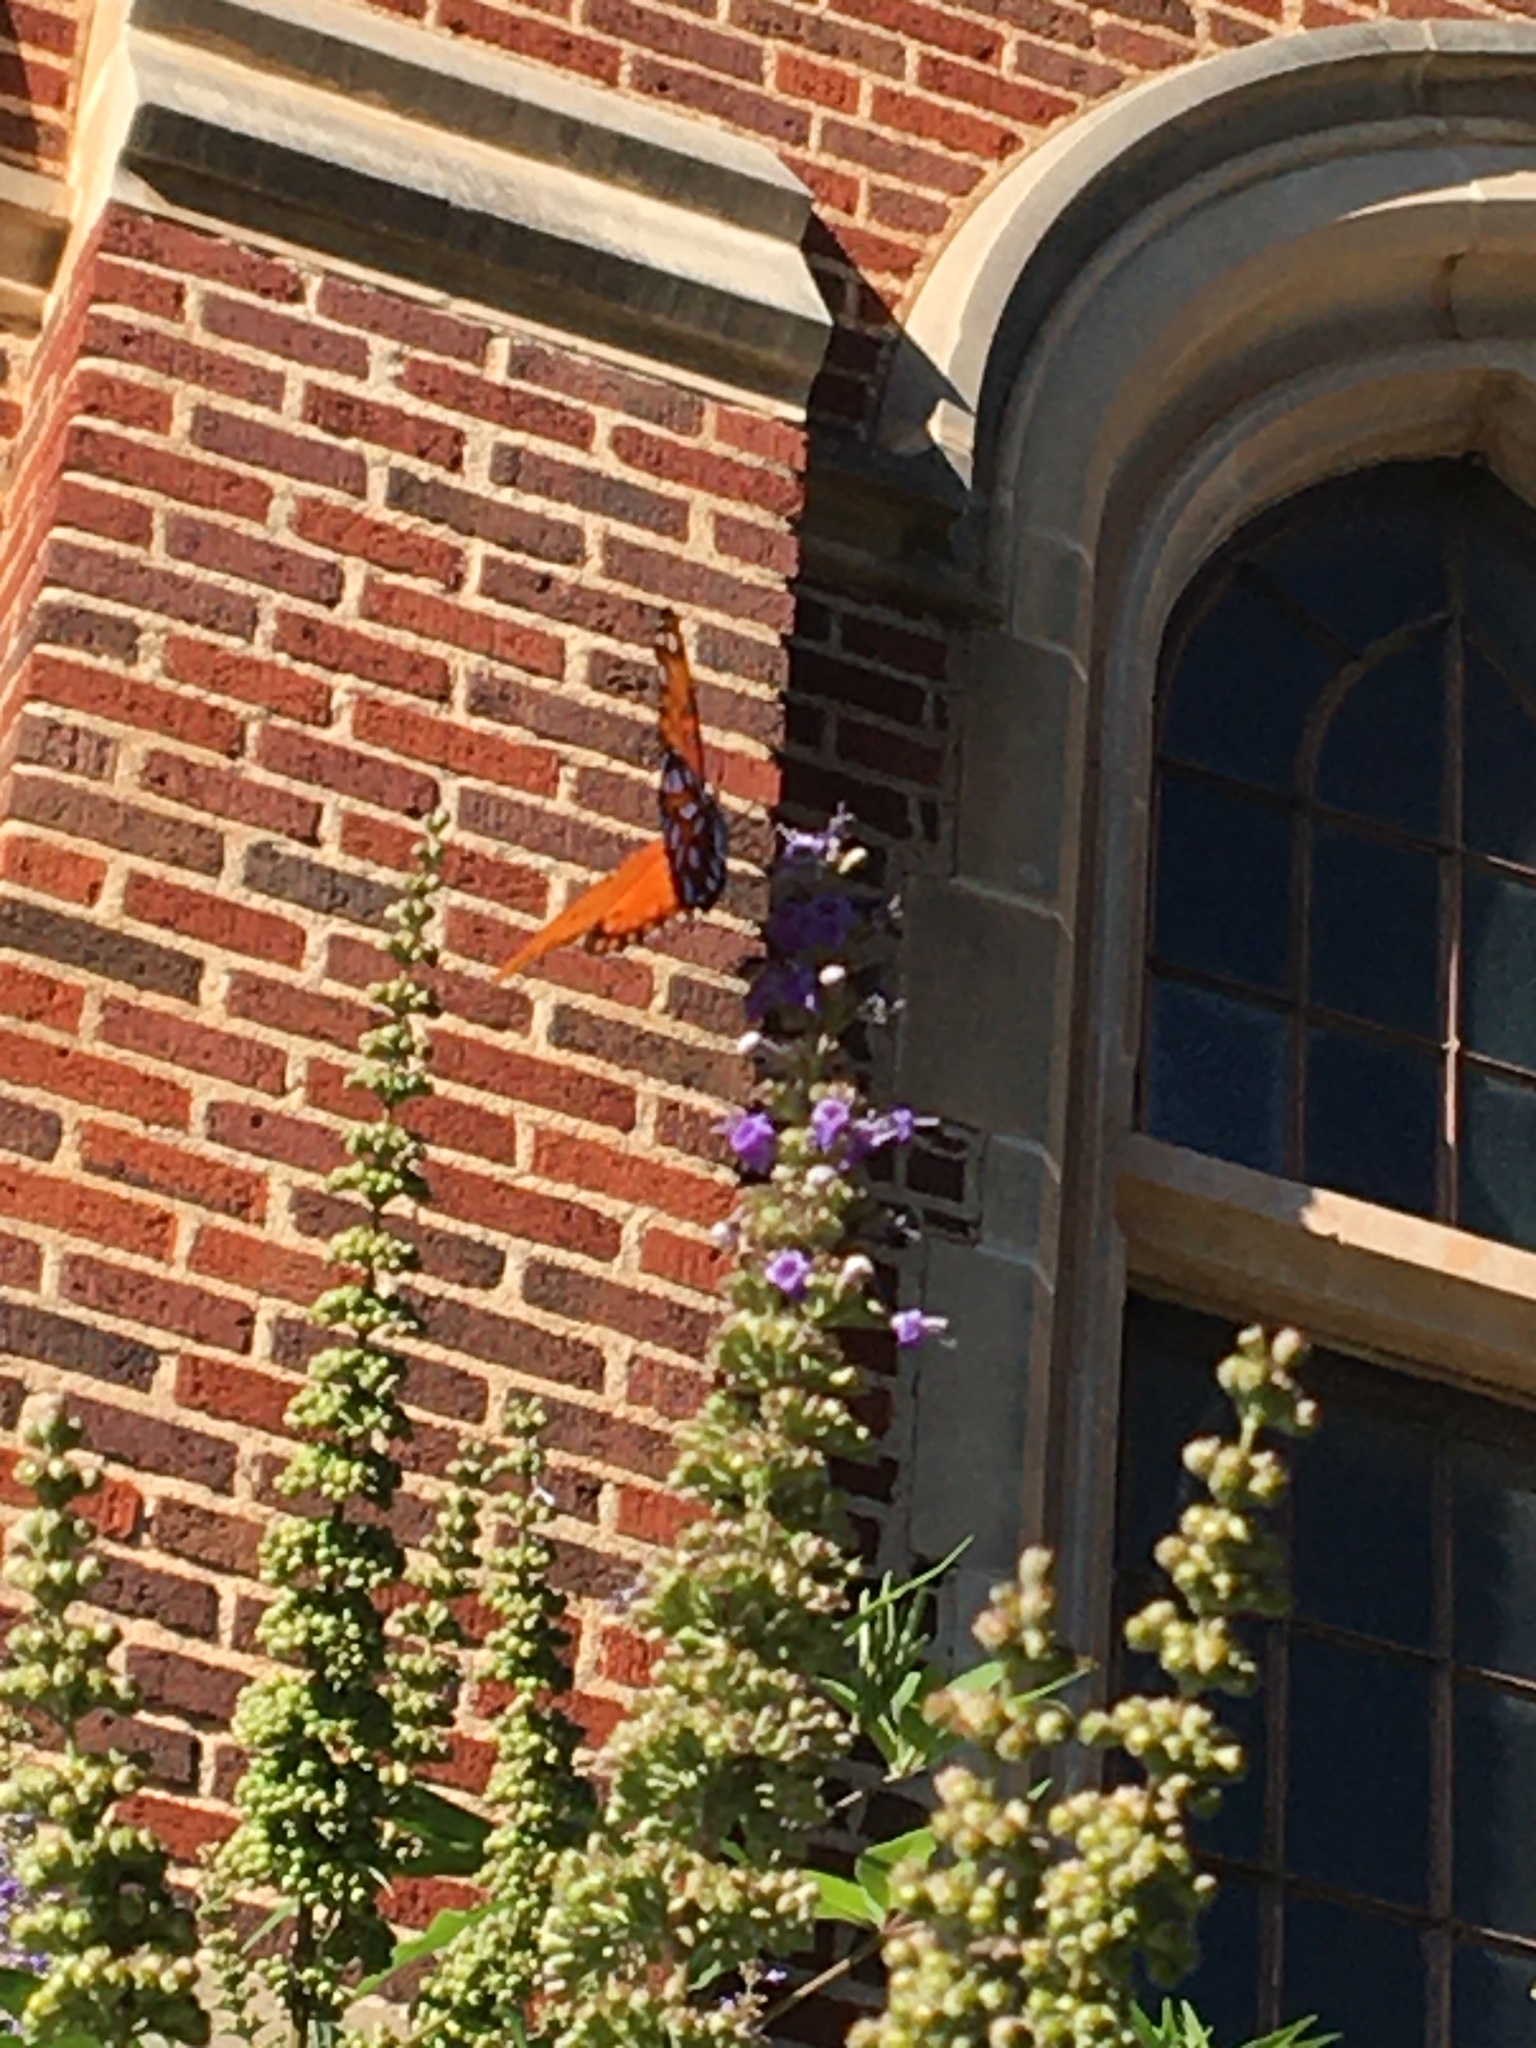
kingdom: Animalia
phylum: Arthropoda
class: Insecta
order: Lepidoptera
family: Nymphalidae
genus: Dione
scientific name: Dione vanillae
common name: Gulf fritillary
